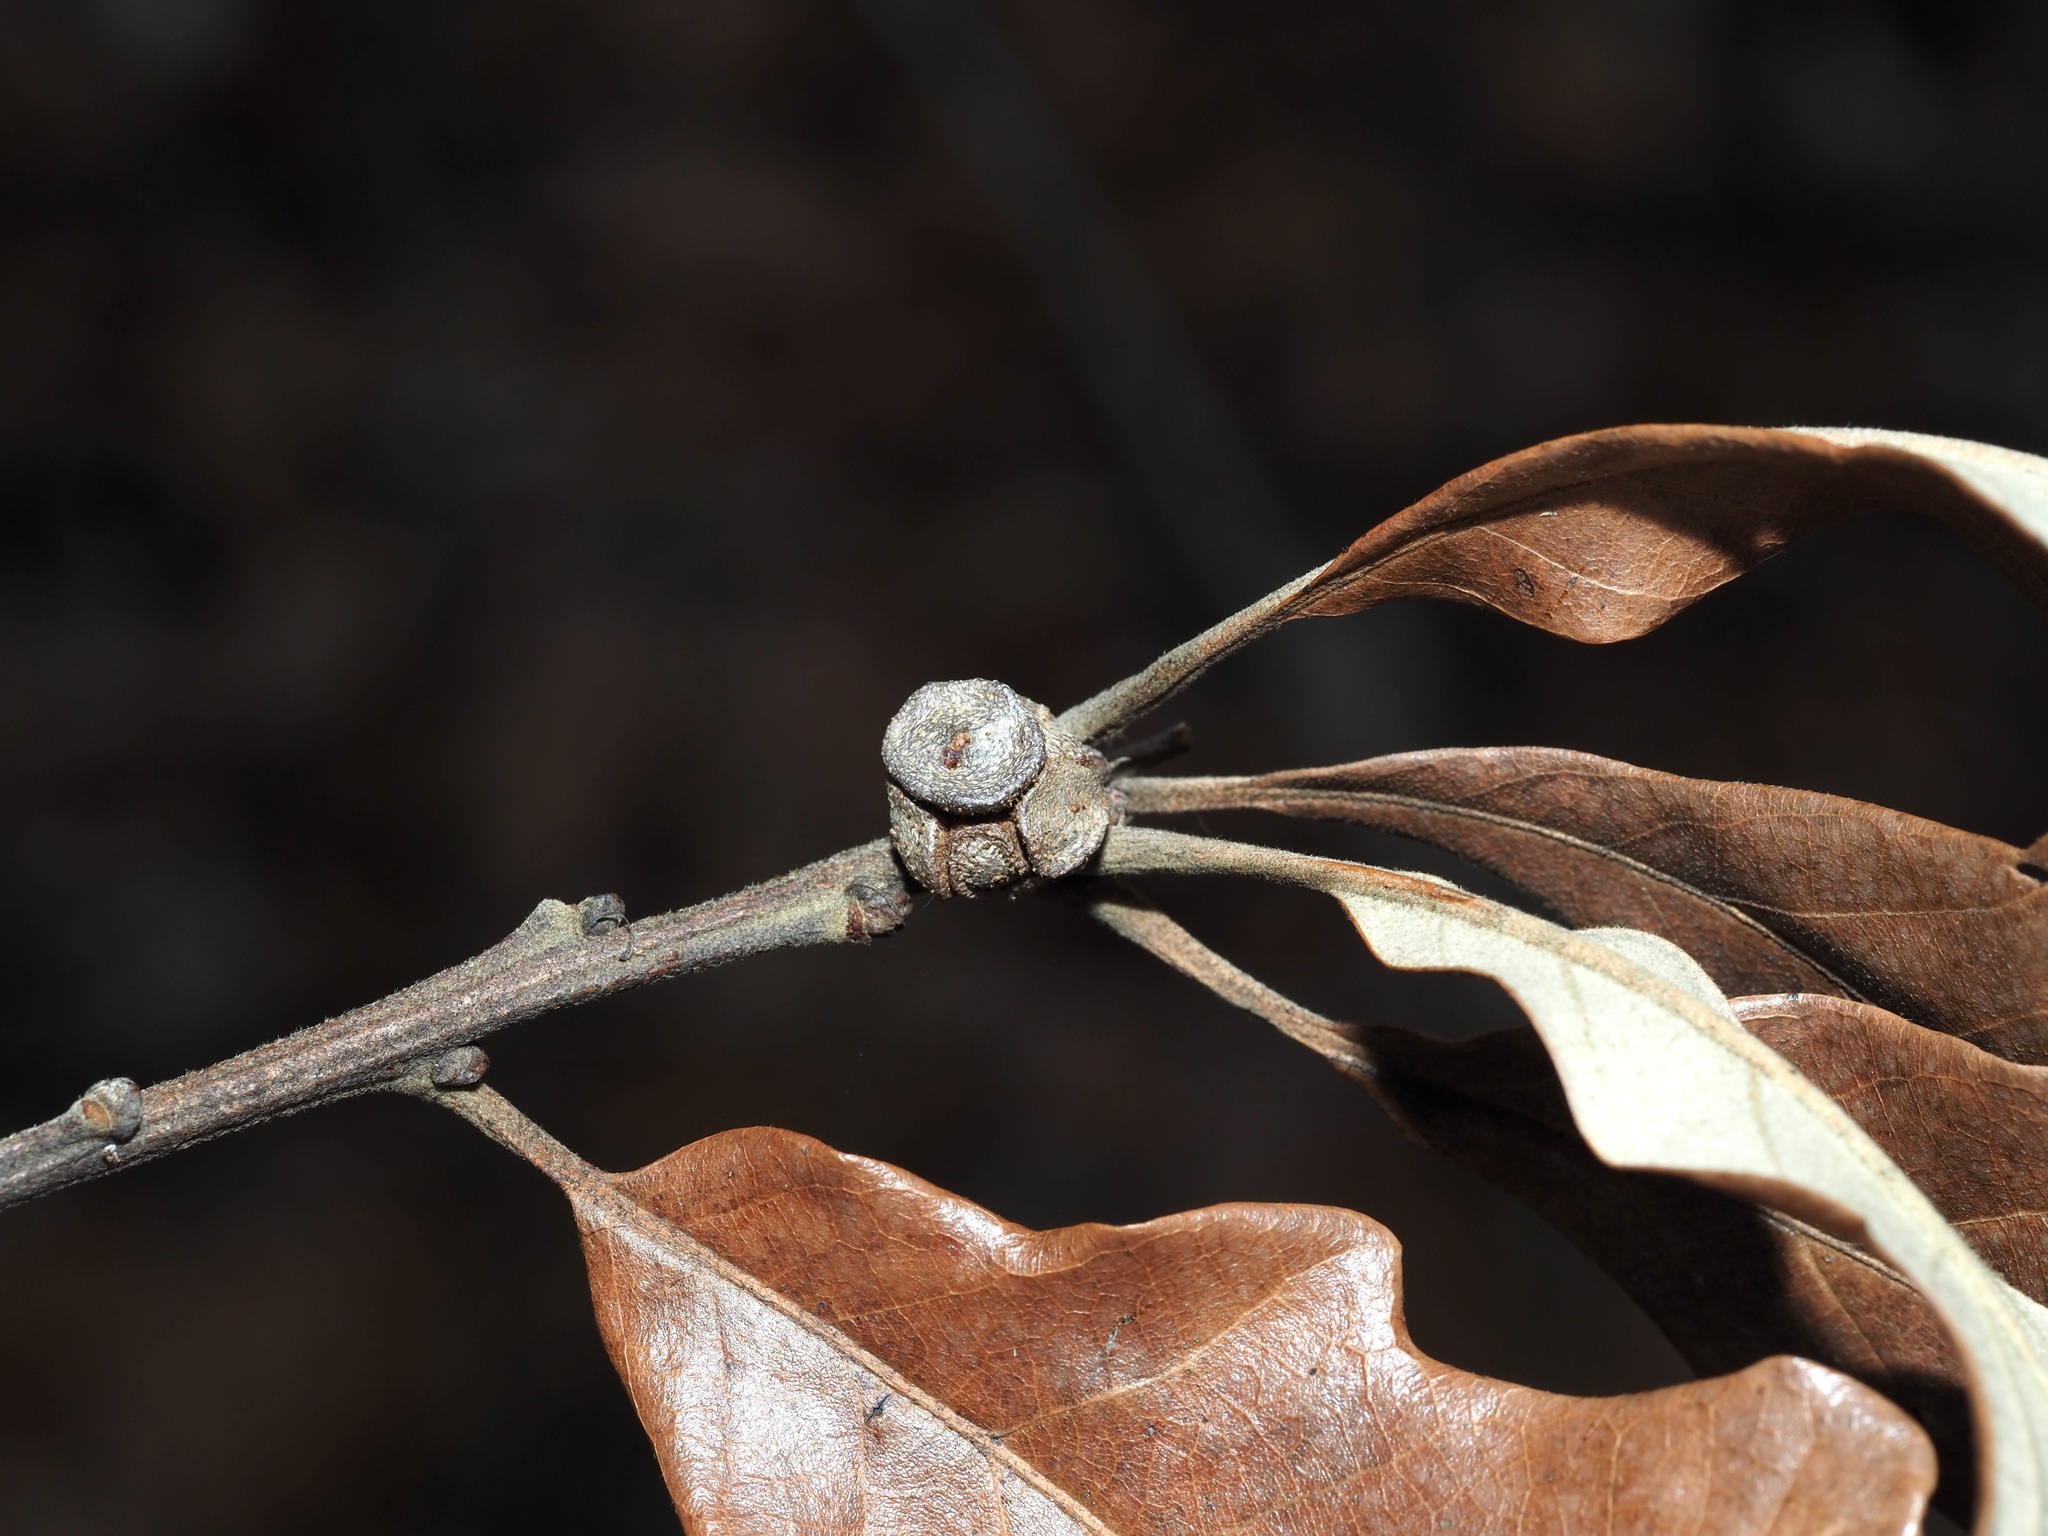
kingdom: Animalia
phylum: Arthropoda
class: Insecta
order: Hymenoptera
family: Cynipidae
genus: Andricus
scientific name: Andricus
